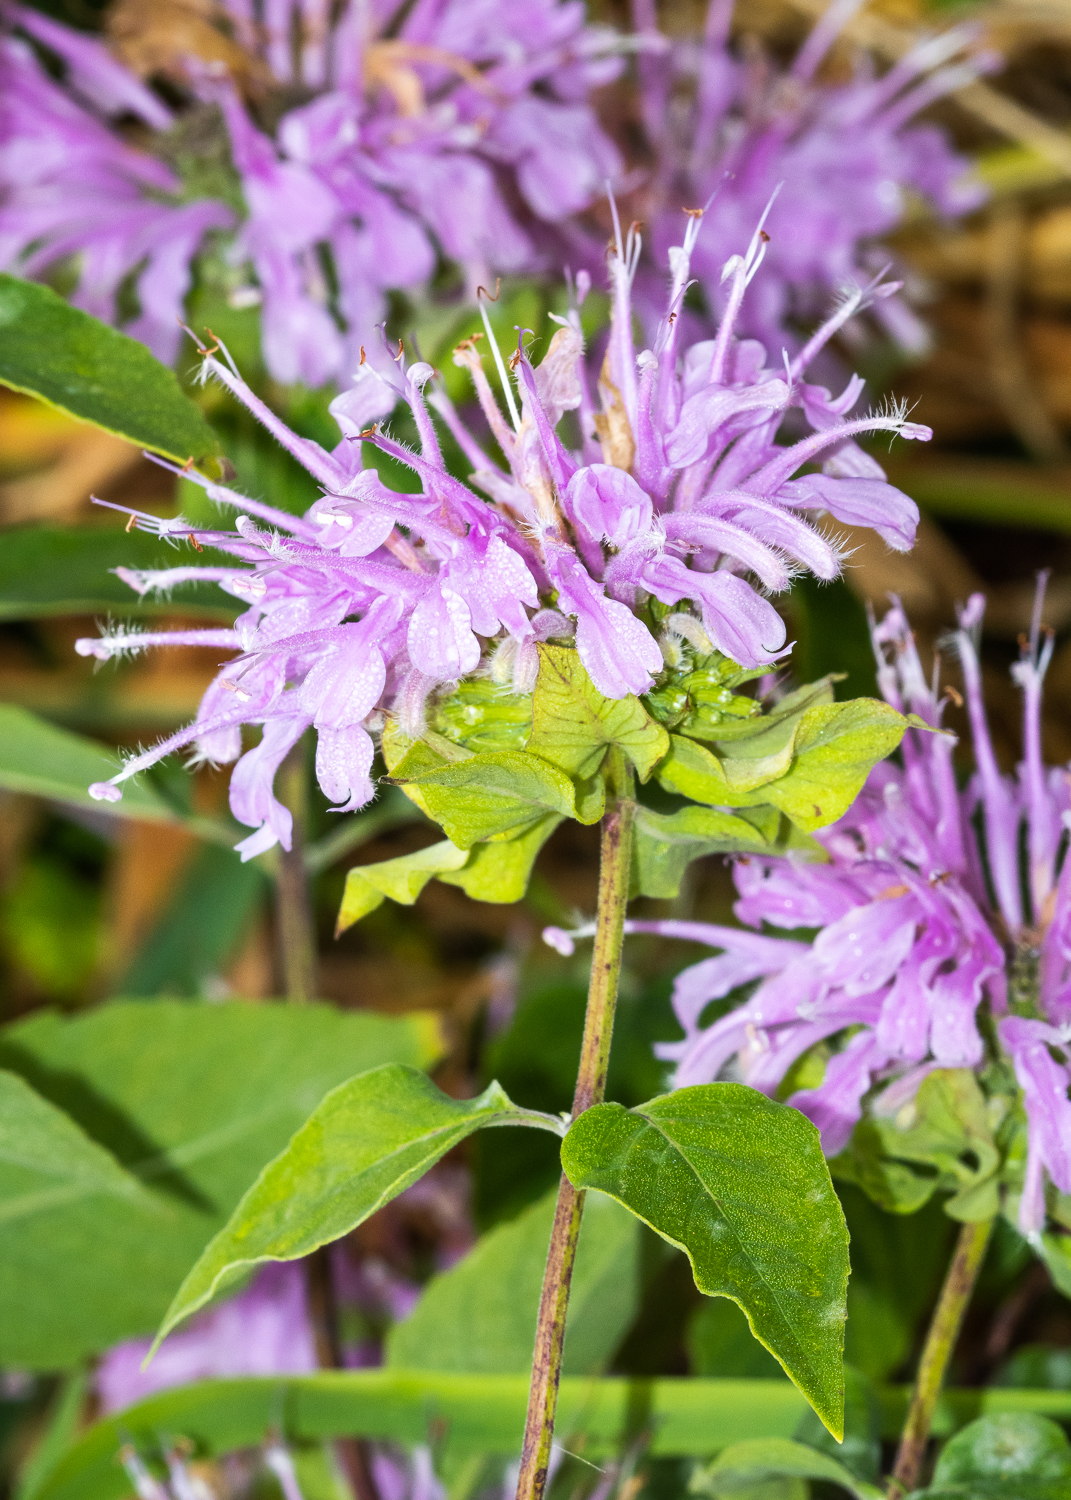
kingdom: Plantae
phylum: Tracheophyta
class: Magnoliopsida
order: Lamiales
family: Lamiaceae
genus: Monarda
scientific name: Monarda fistulosa
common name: Purple beebalm
